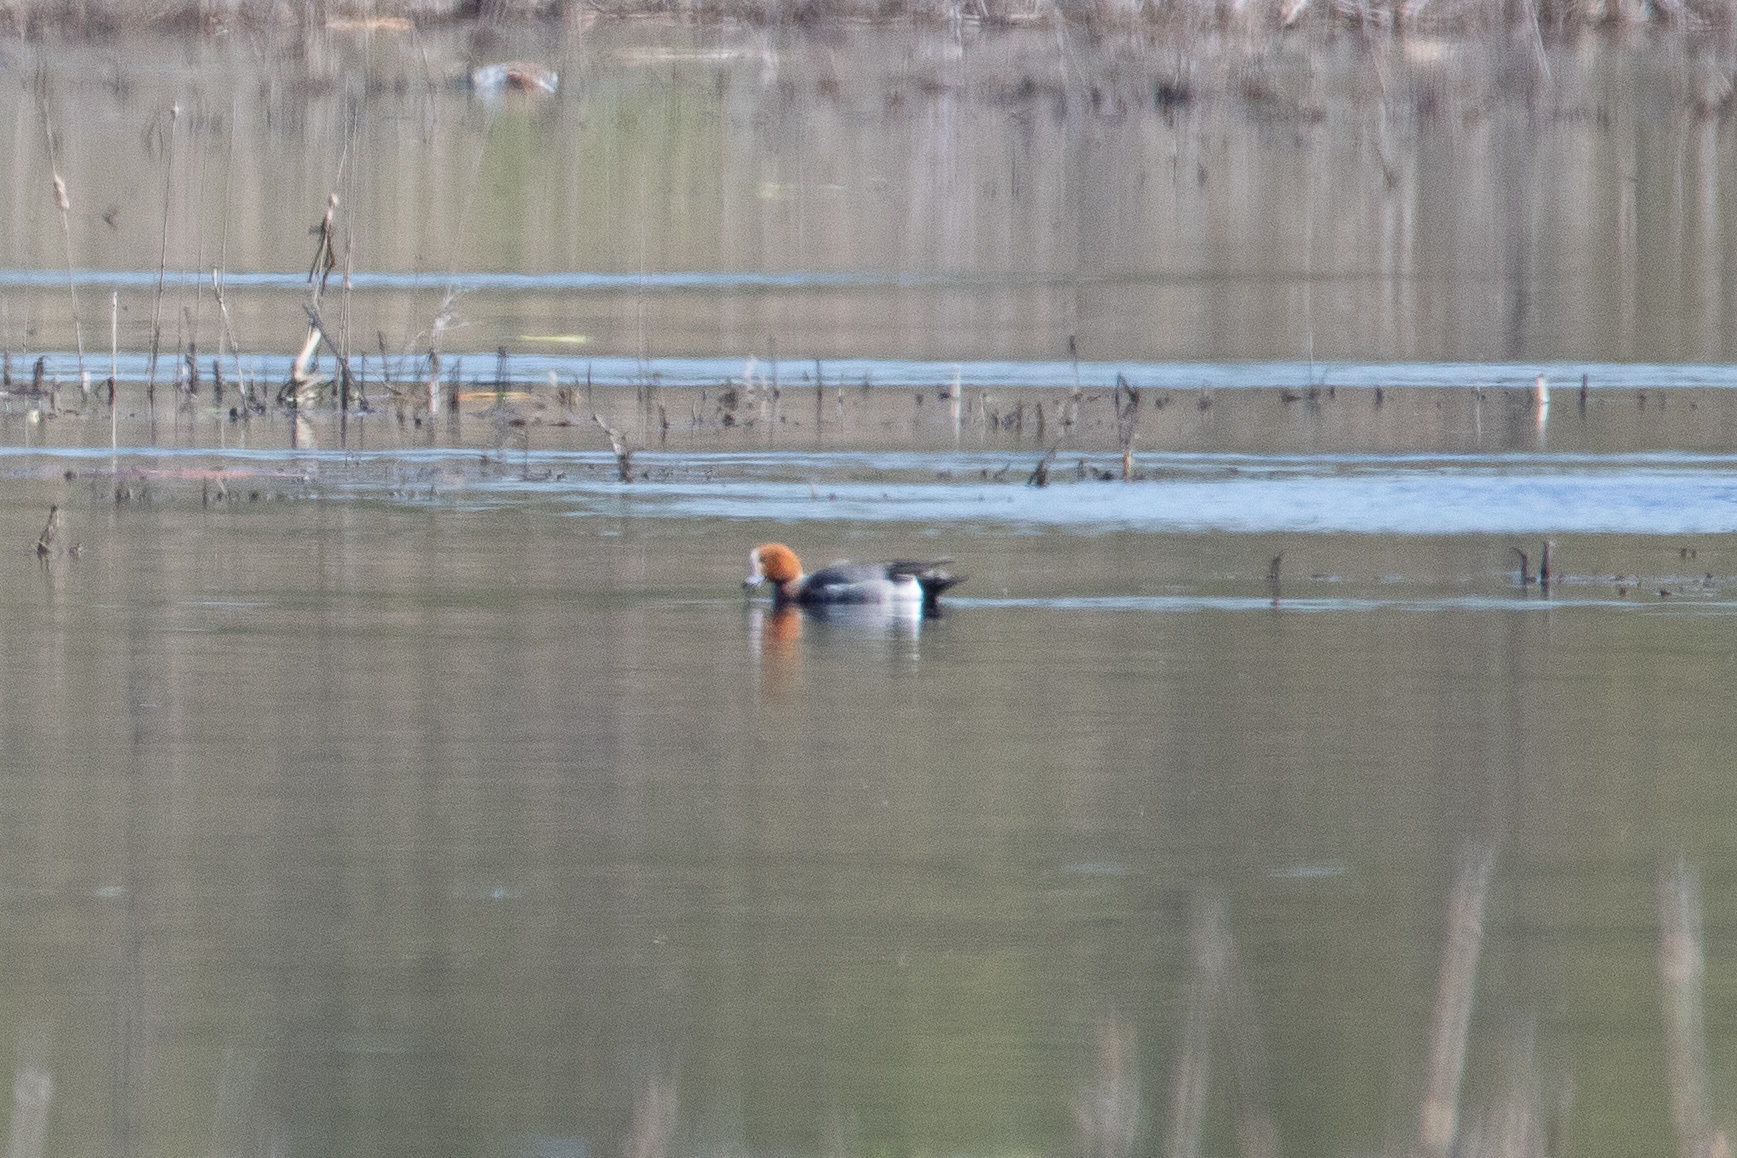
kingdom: Animalia
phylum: Chordata
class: Aves
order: Anseriformes
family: Anatidae
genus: Mareca
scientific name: Mareca penelope
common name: Eurasian wigeon
